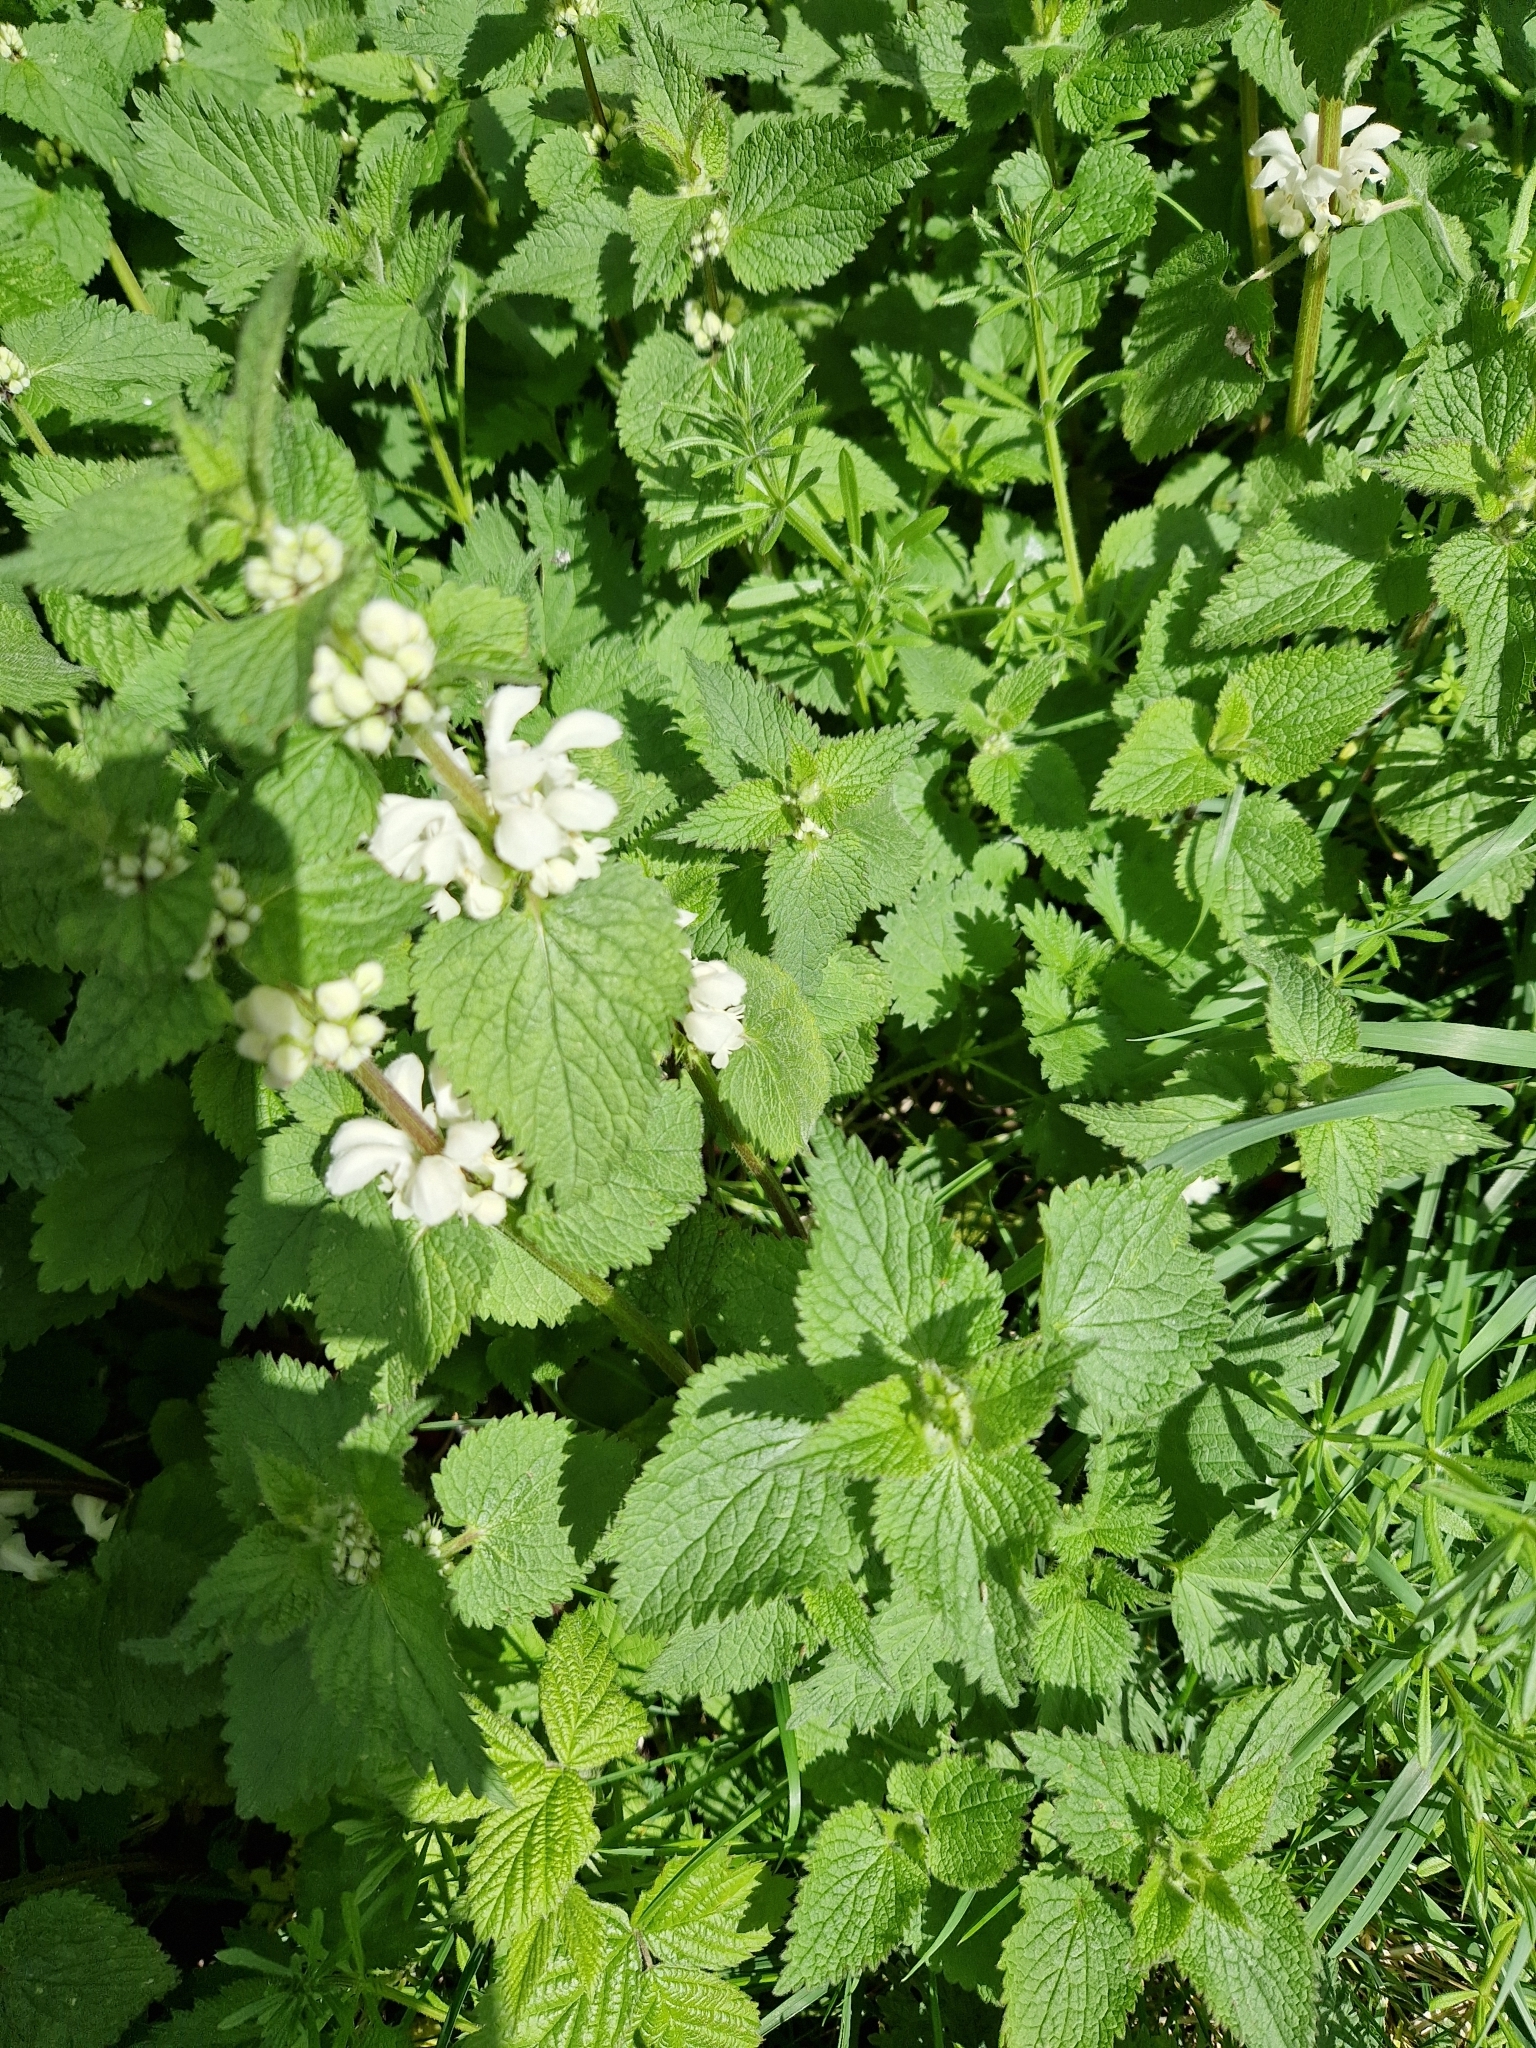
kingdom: Plantae
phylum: Tracheophyta
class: Magnoliopsida
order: Lamiales
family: Lamiaceae
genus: Lamium
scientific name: Lamium album
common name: White dead-nettle
